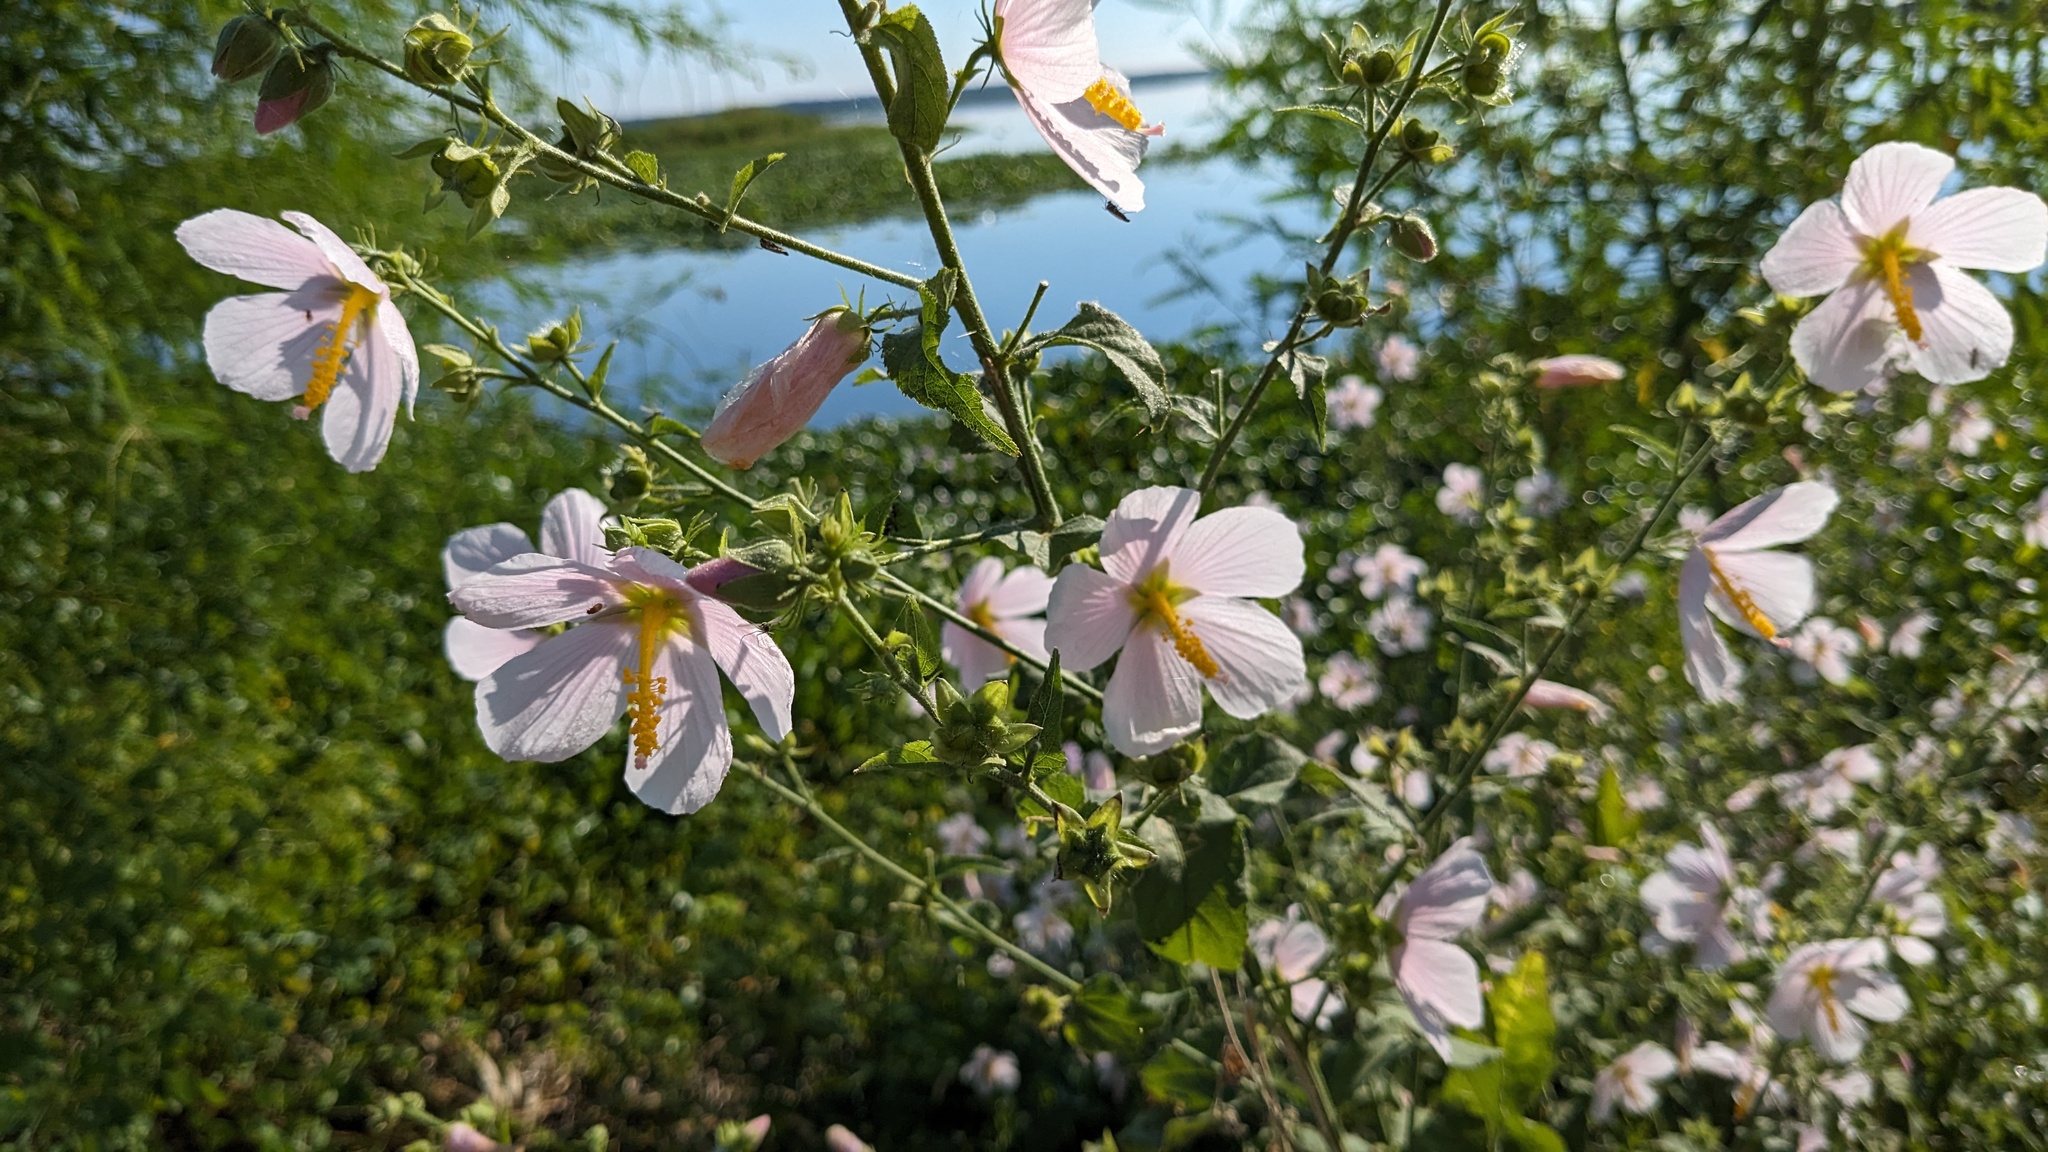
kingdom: Plantae
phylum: Tracheophyta
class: Magnoliopsida
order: Malvales
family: Malvaceae
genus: Kosteletzkya
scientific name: Kosteletzkya pentacarpos
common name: Virginia saltmarsh mallow
